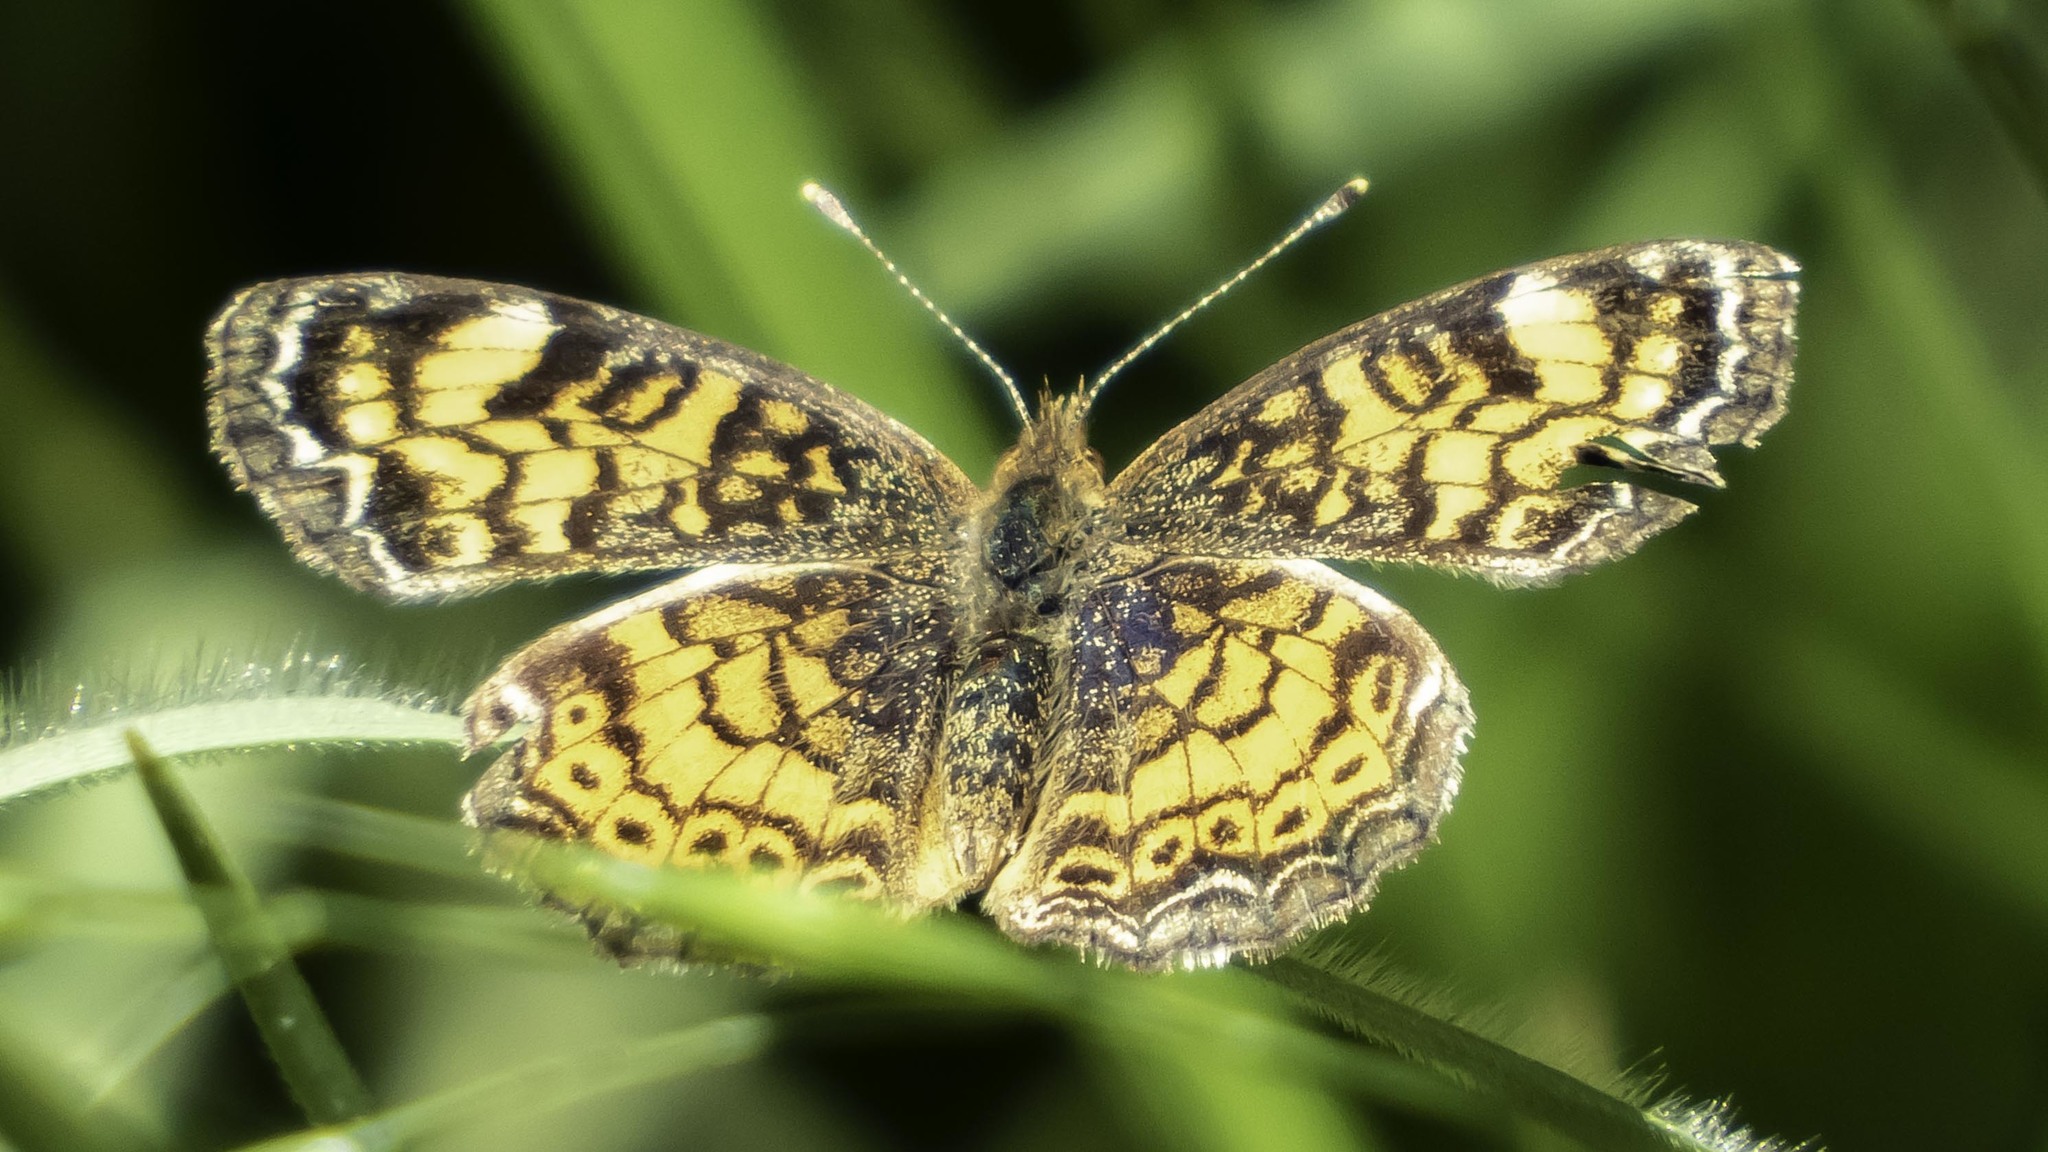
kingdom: Animalia
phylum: Arthropoda
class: Insecta
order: Lepidoptera
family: Nymphalidae
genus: Phyciodes
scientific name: Phyciodes tharos
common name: Pearl crescent
